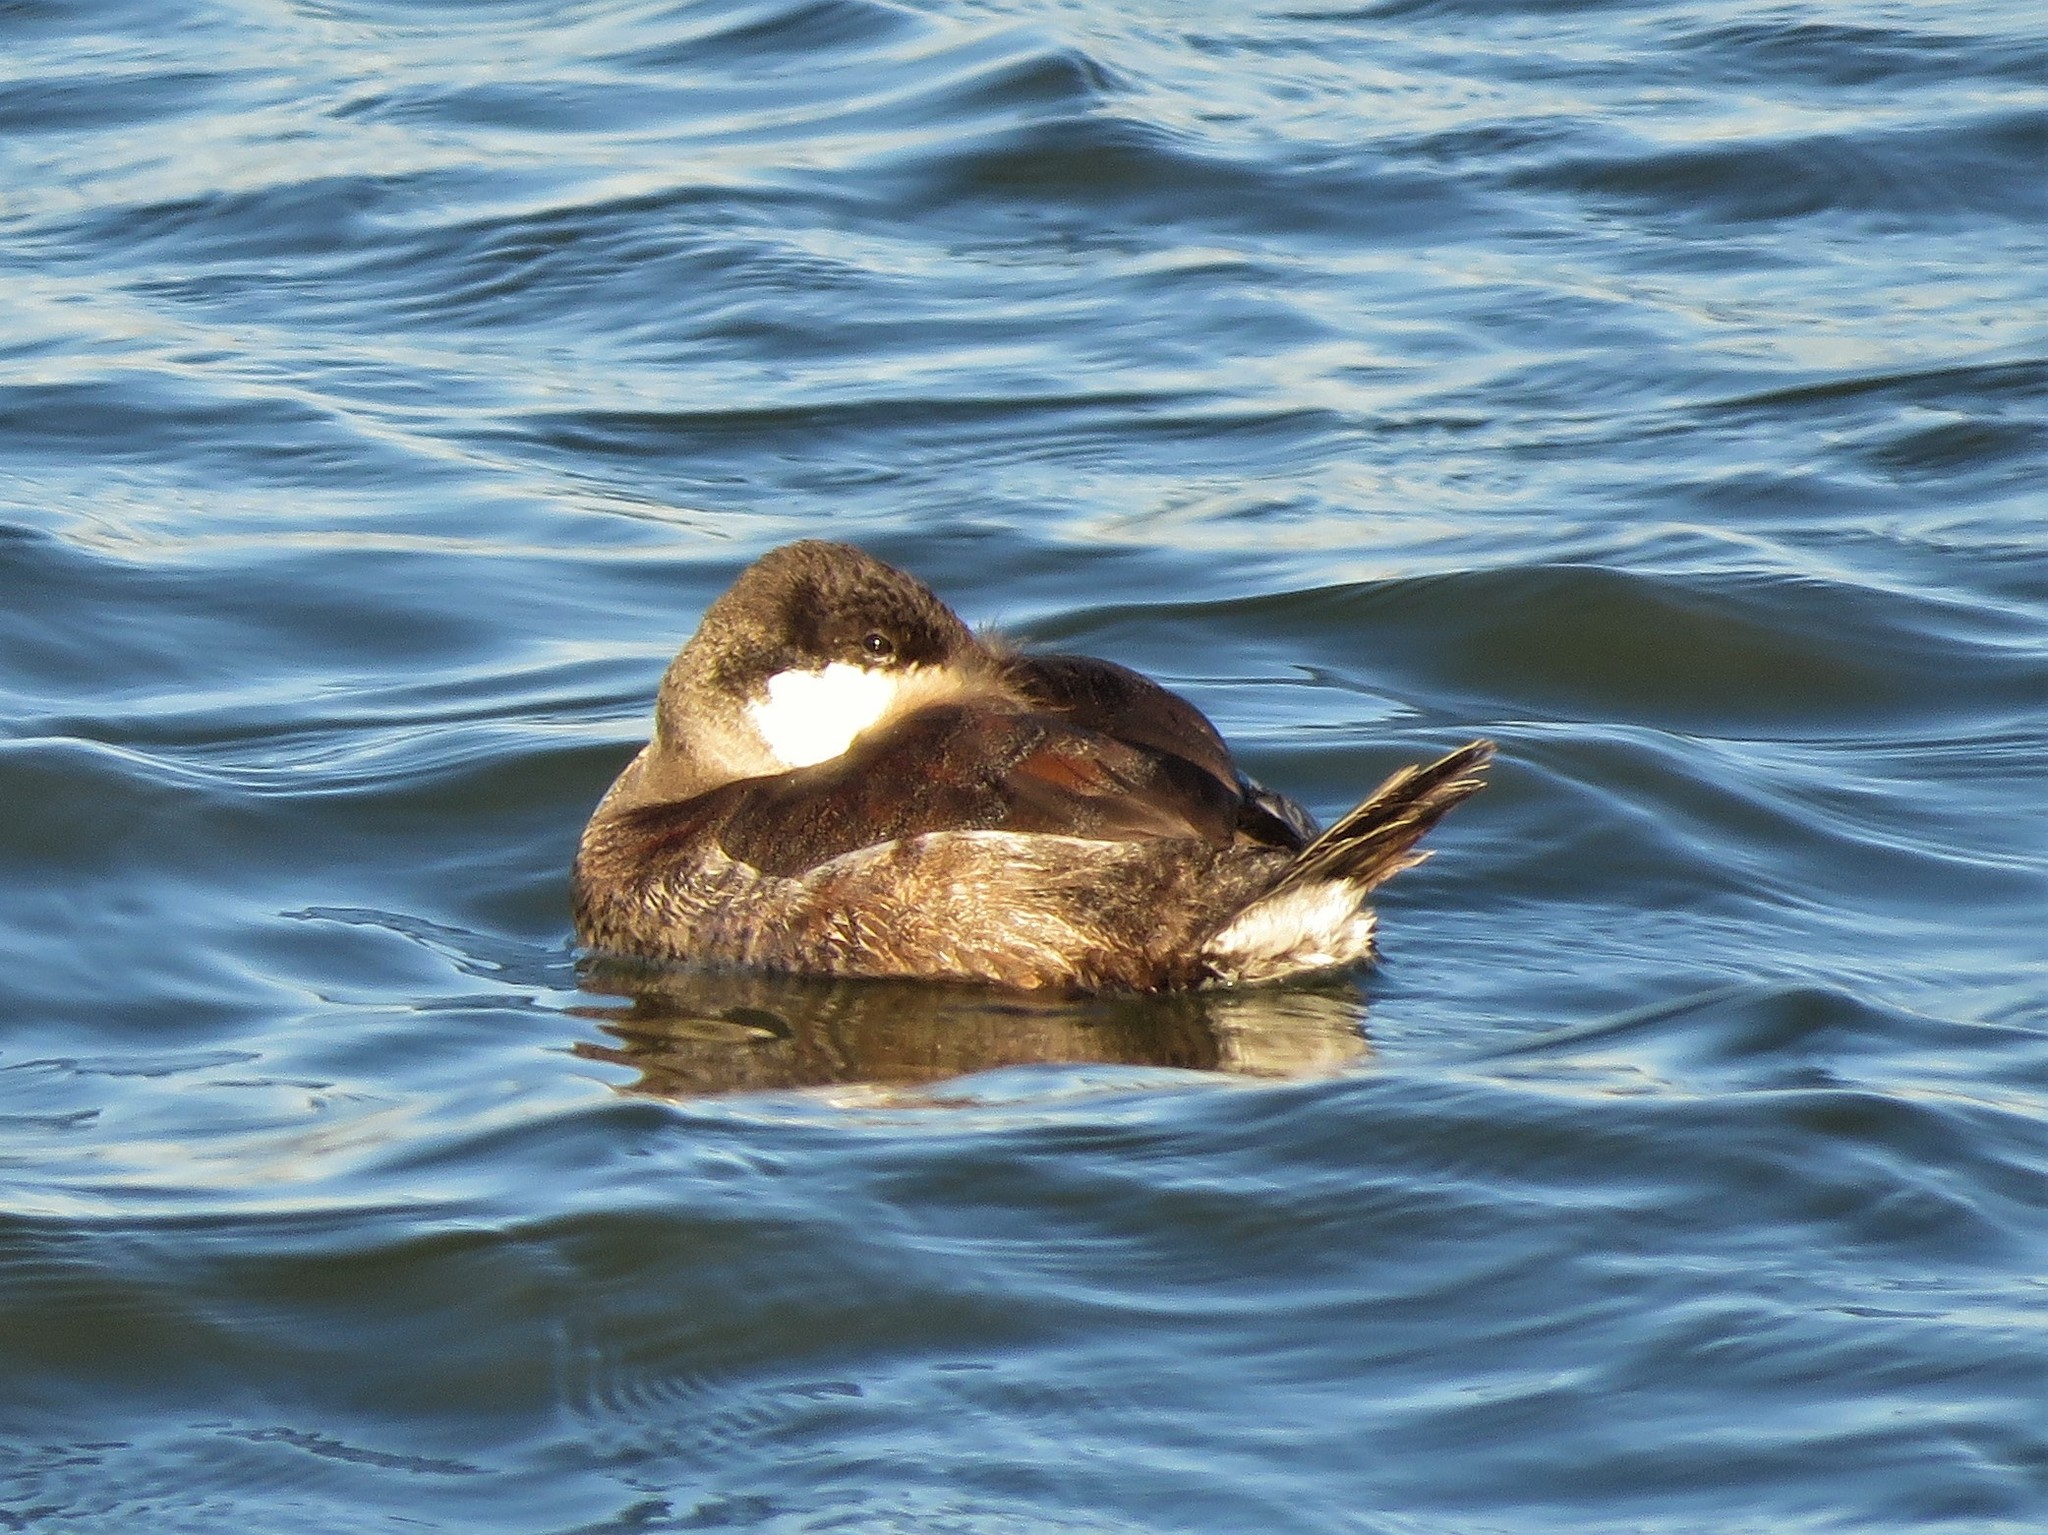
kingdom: Animalia
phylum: Chordata
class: Aves
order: Anseriformes
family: Anatidae
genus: Oxyura
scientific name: Oxyura jamaicensis
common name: Ruddy duck
